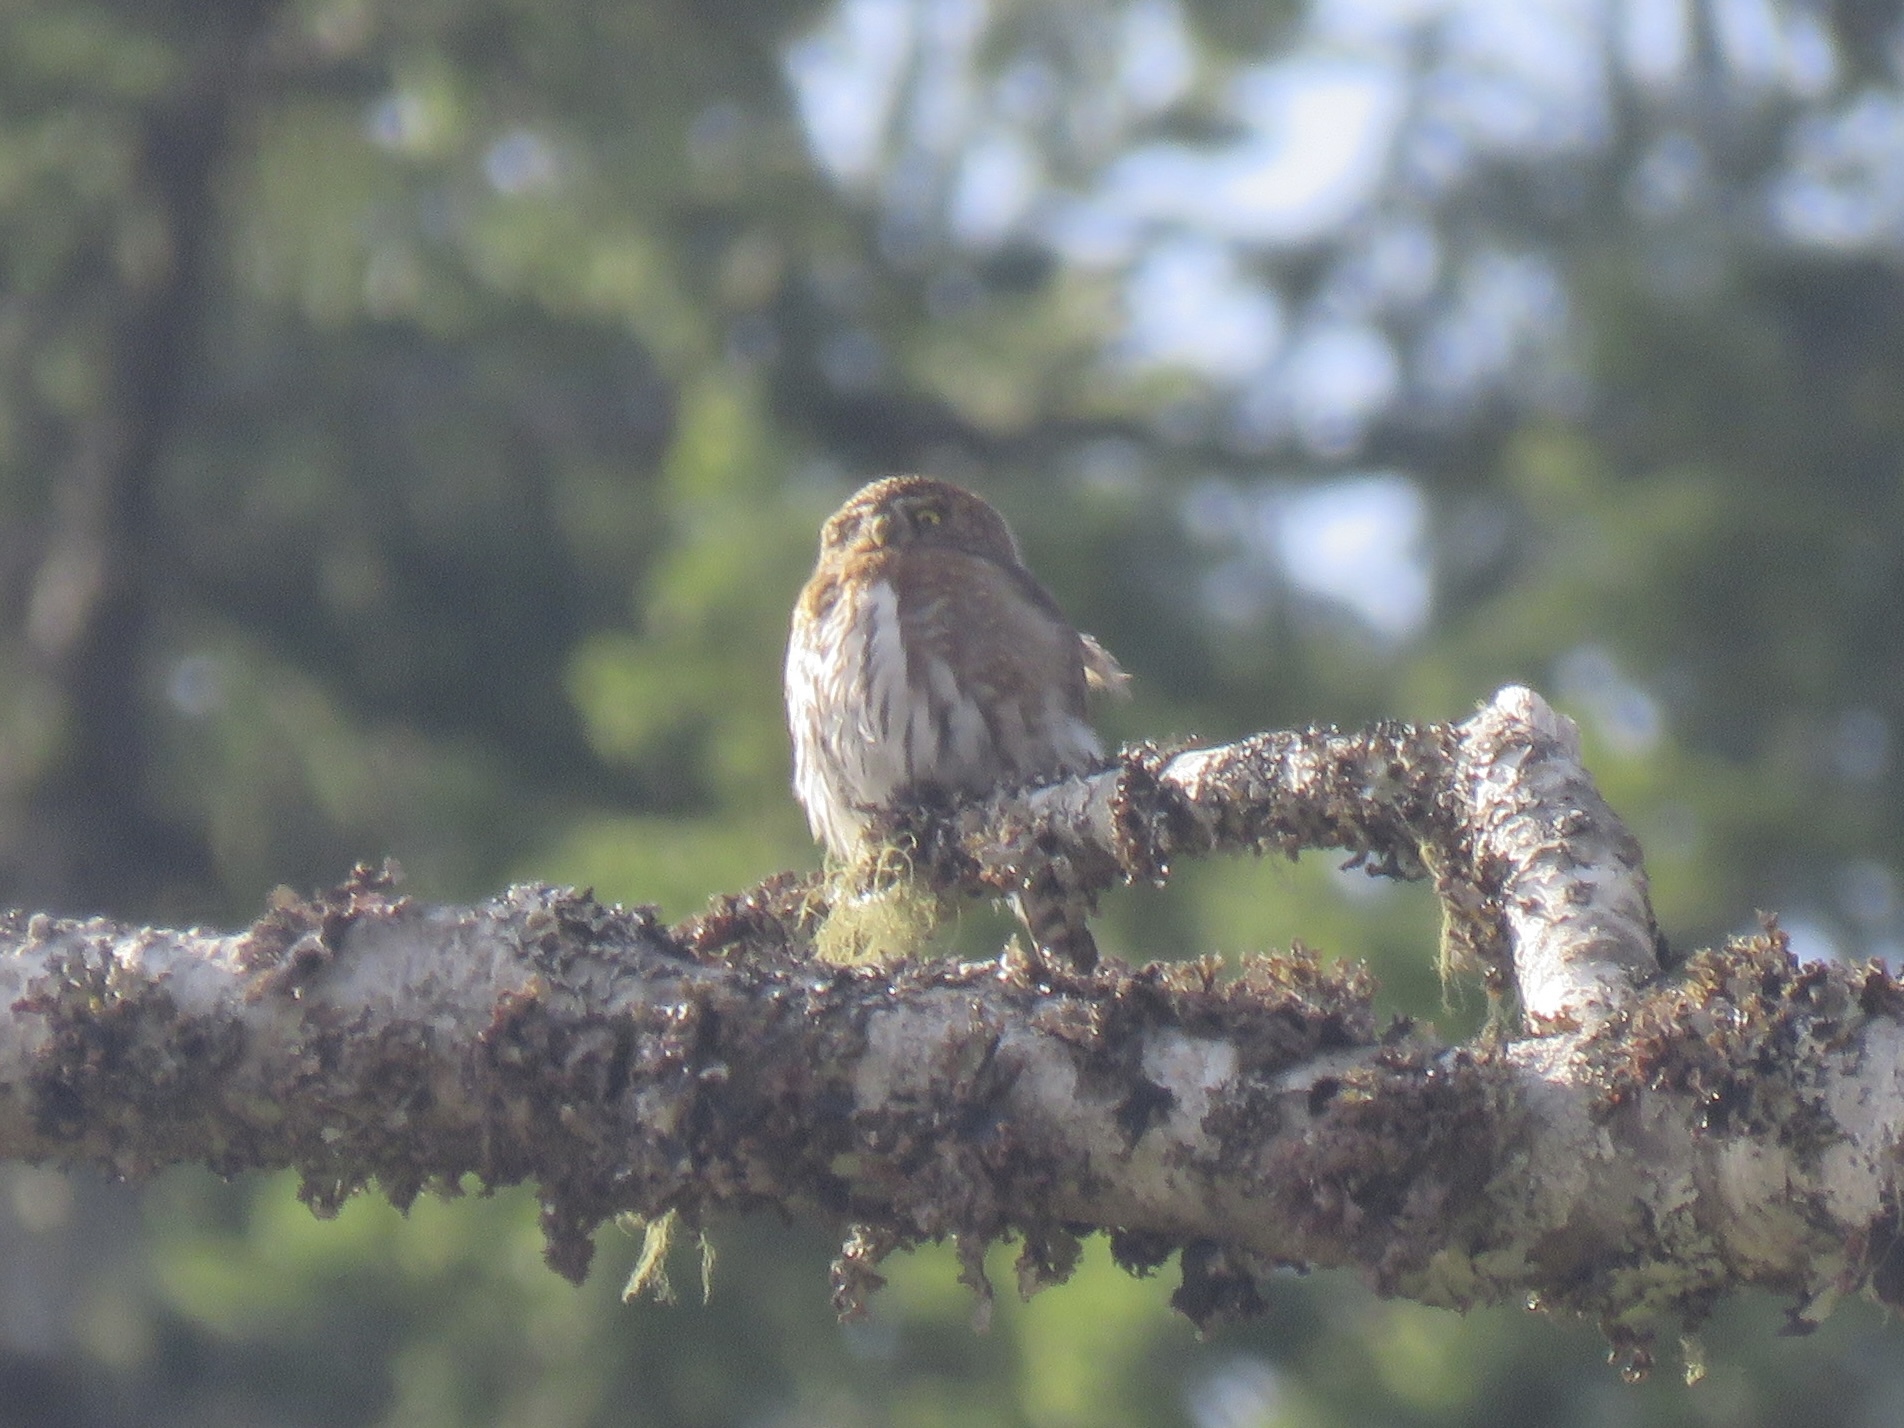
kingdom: Animalia
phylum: Chordata
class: Aves
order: Strigiformes
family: Strigidae
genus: Glaucidium
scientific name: Glaucidium gnoma
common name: Northern pygmy-owl
